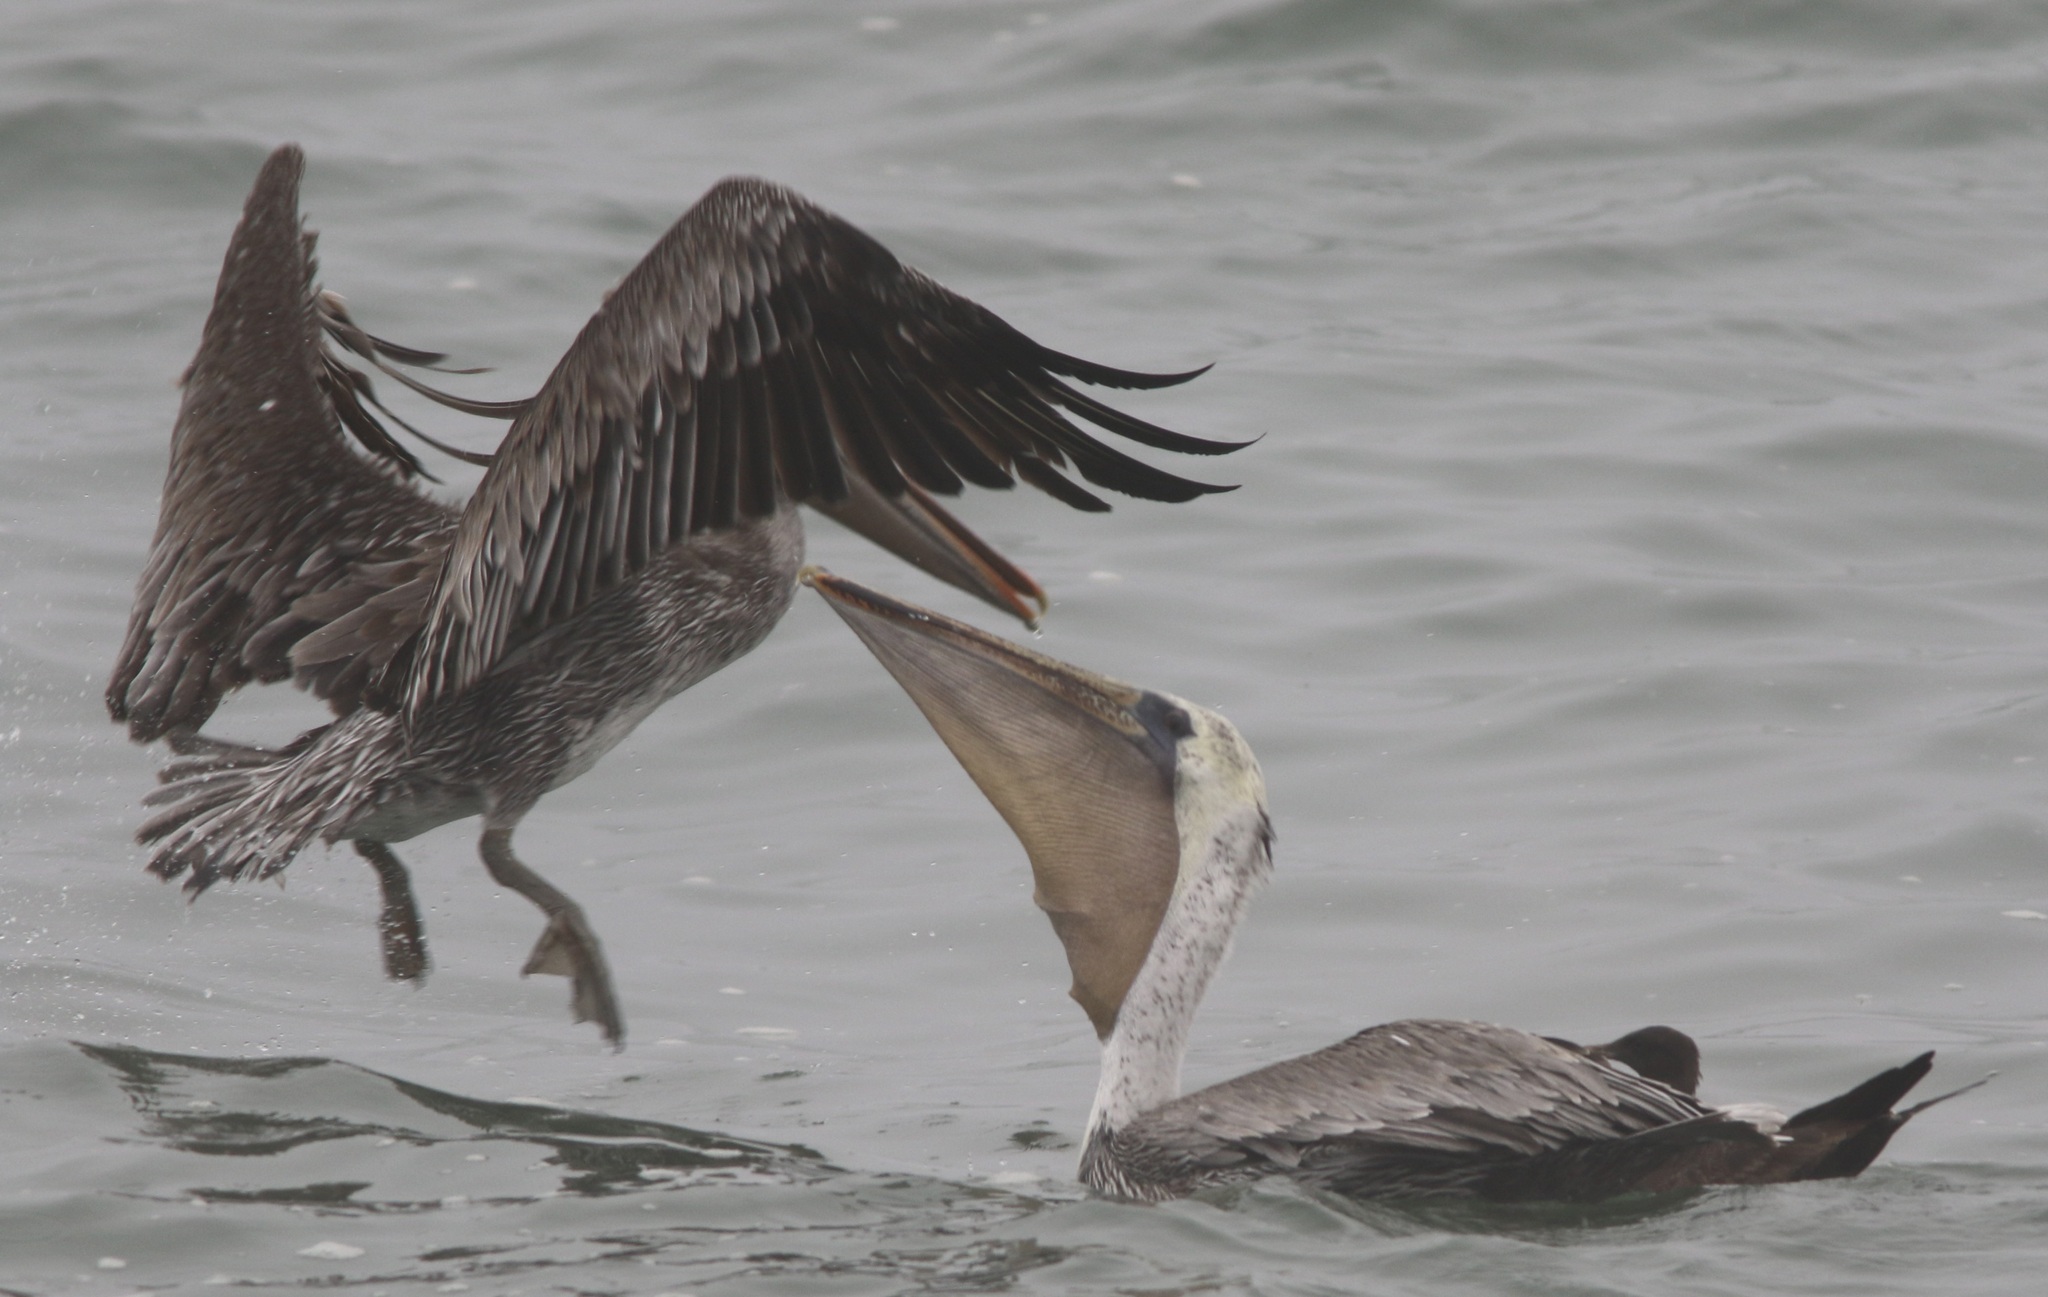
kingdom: Animalia
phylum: Chordata
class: Aves
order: Pelecaniformes
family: Pelecanidae
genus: Pelecanus
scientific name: Pelecanus occidentalis
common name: Brown pelican
